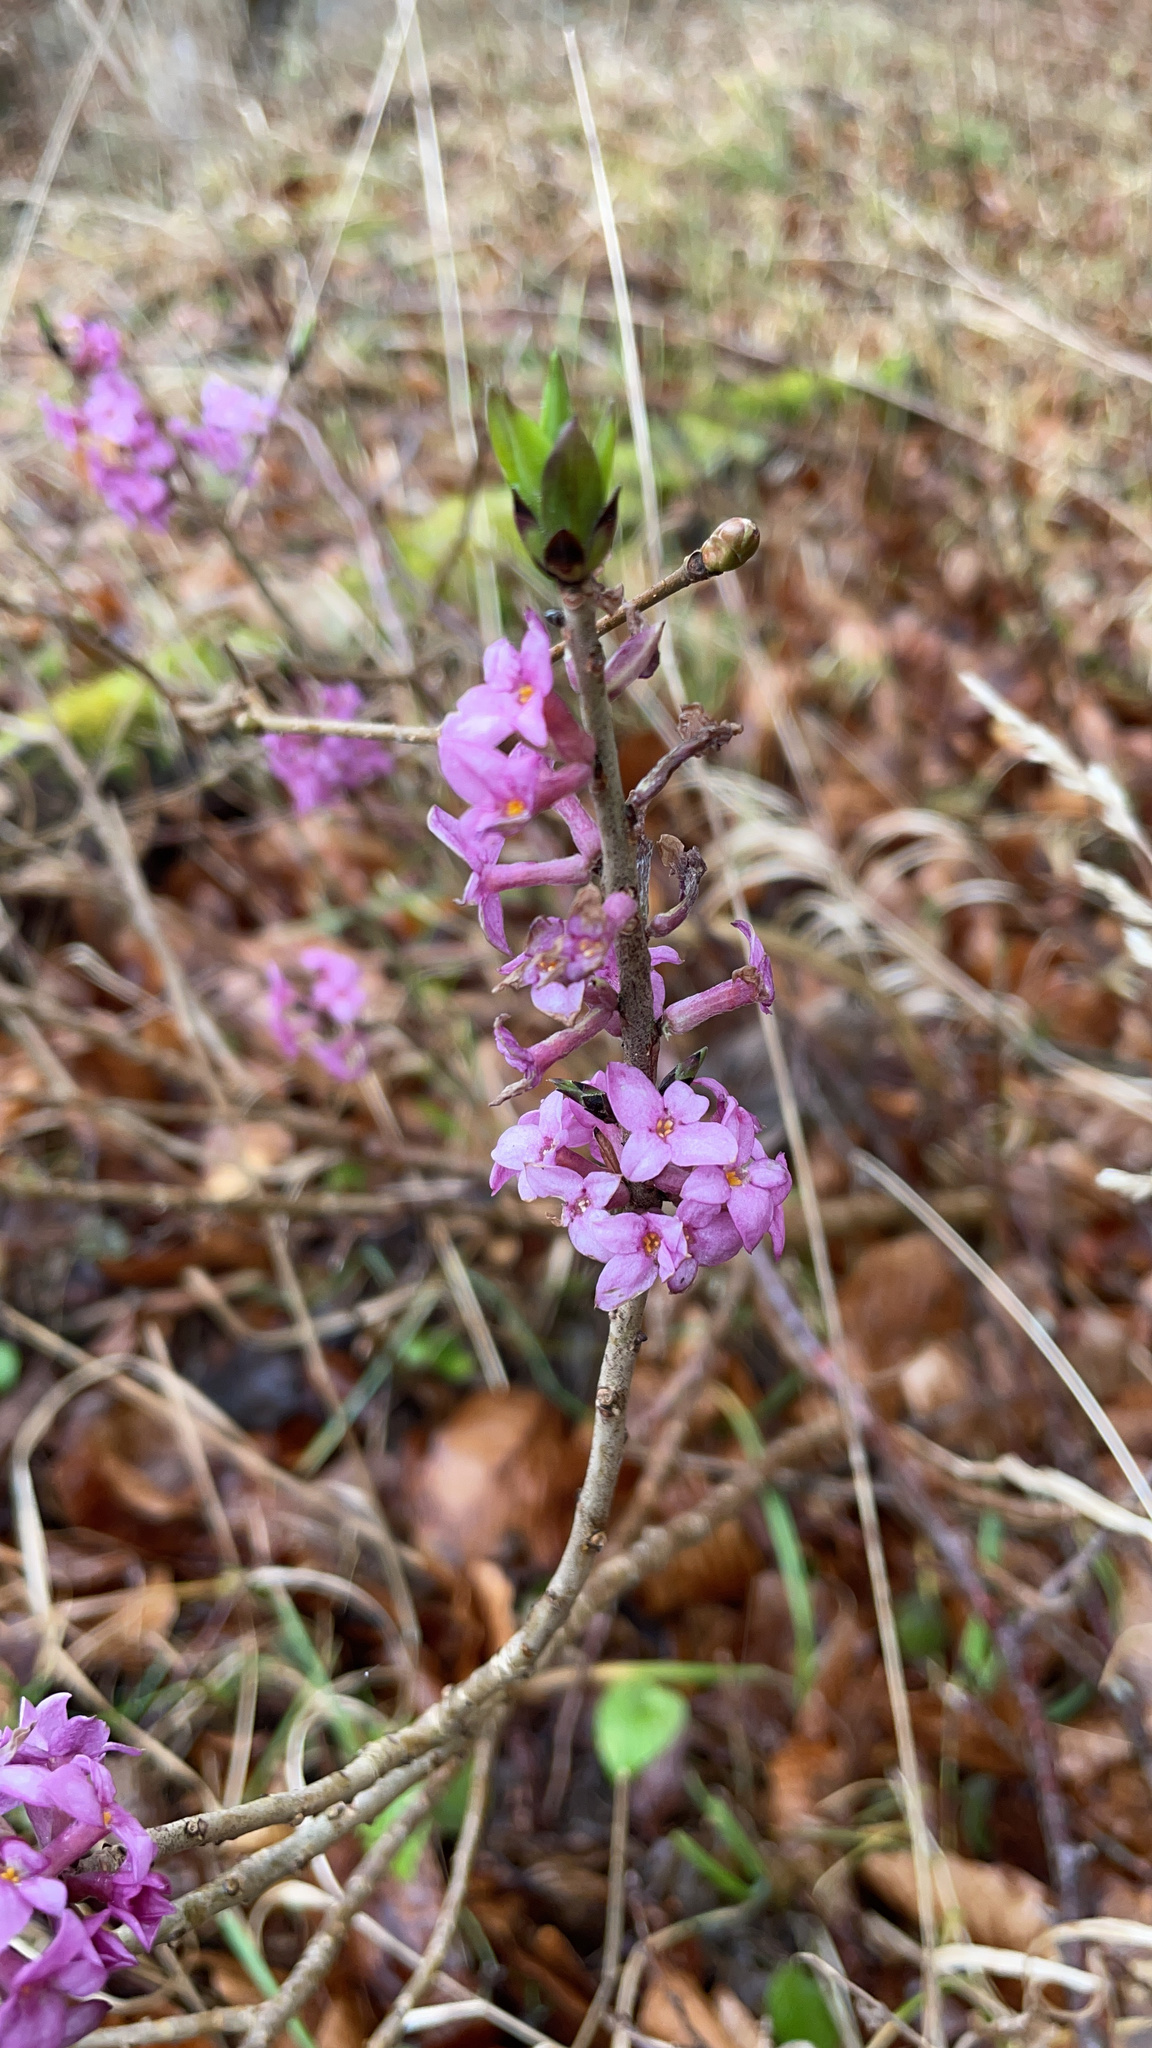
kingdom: Plantae
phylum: Tracheophyta
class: Magnoliopsida
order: Malvales
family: Thymelaeaceae
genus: Daphne
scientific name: Daphne mezereum
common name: Mezereon
